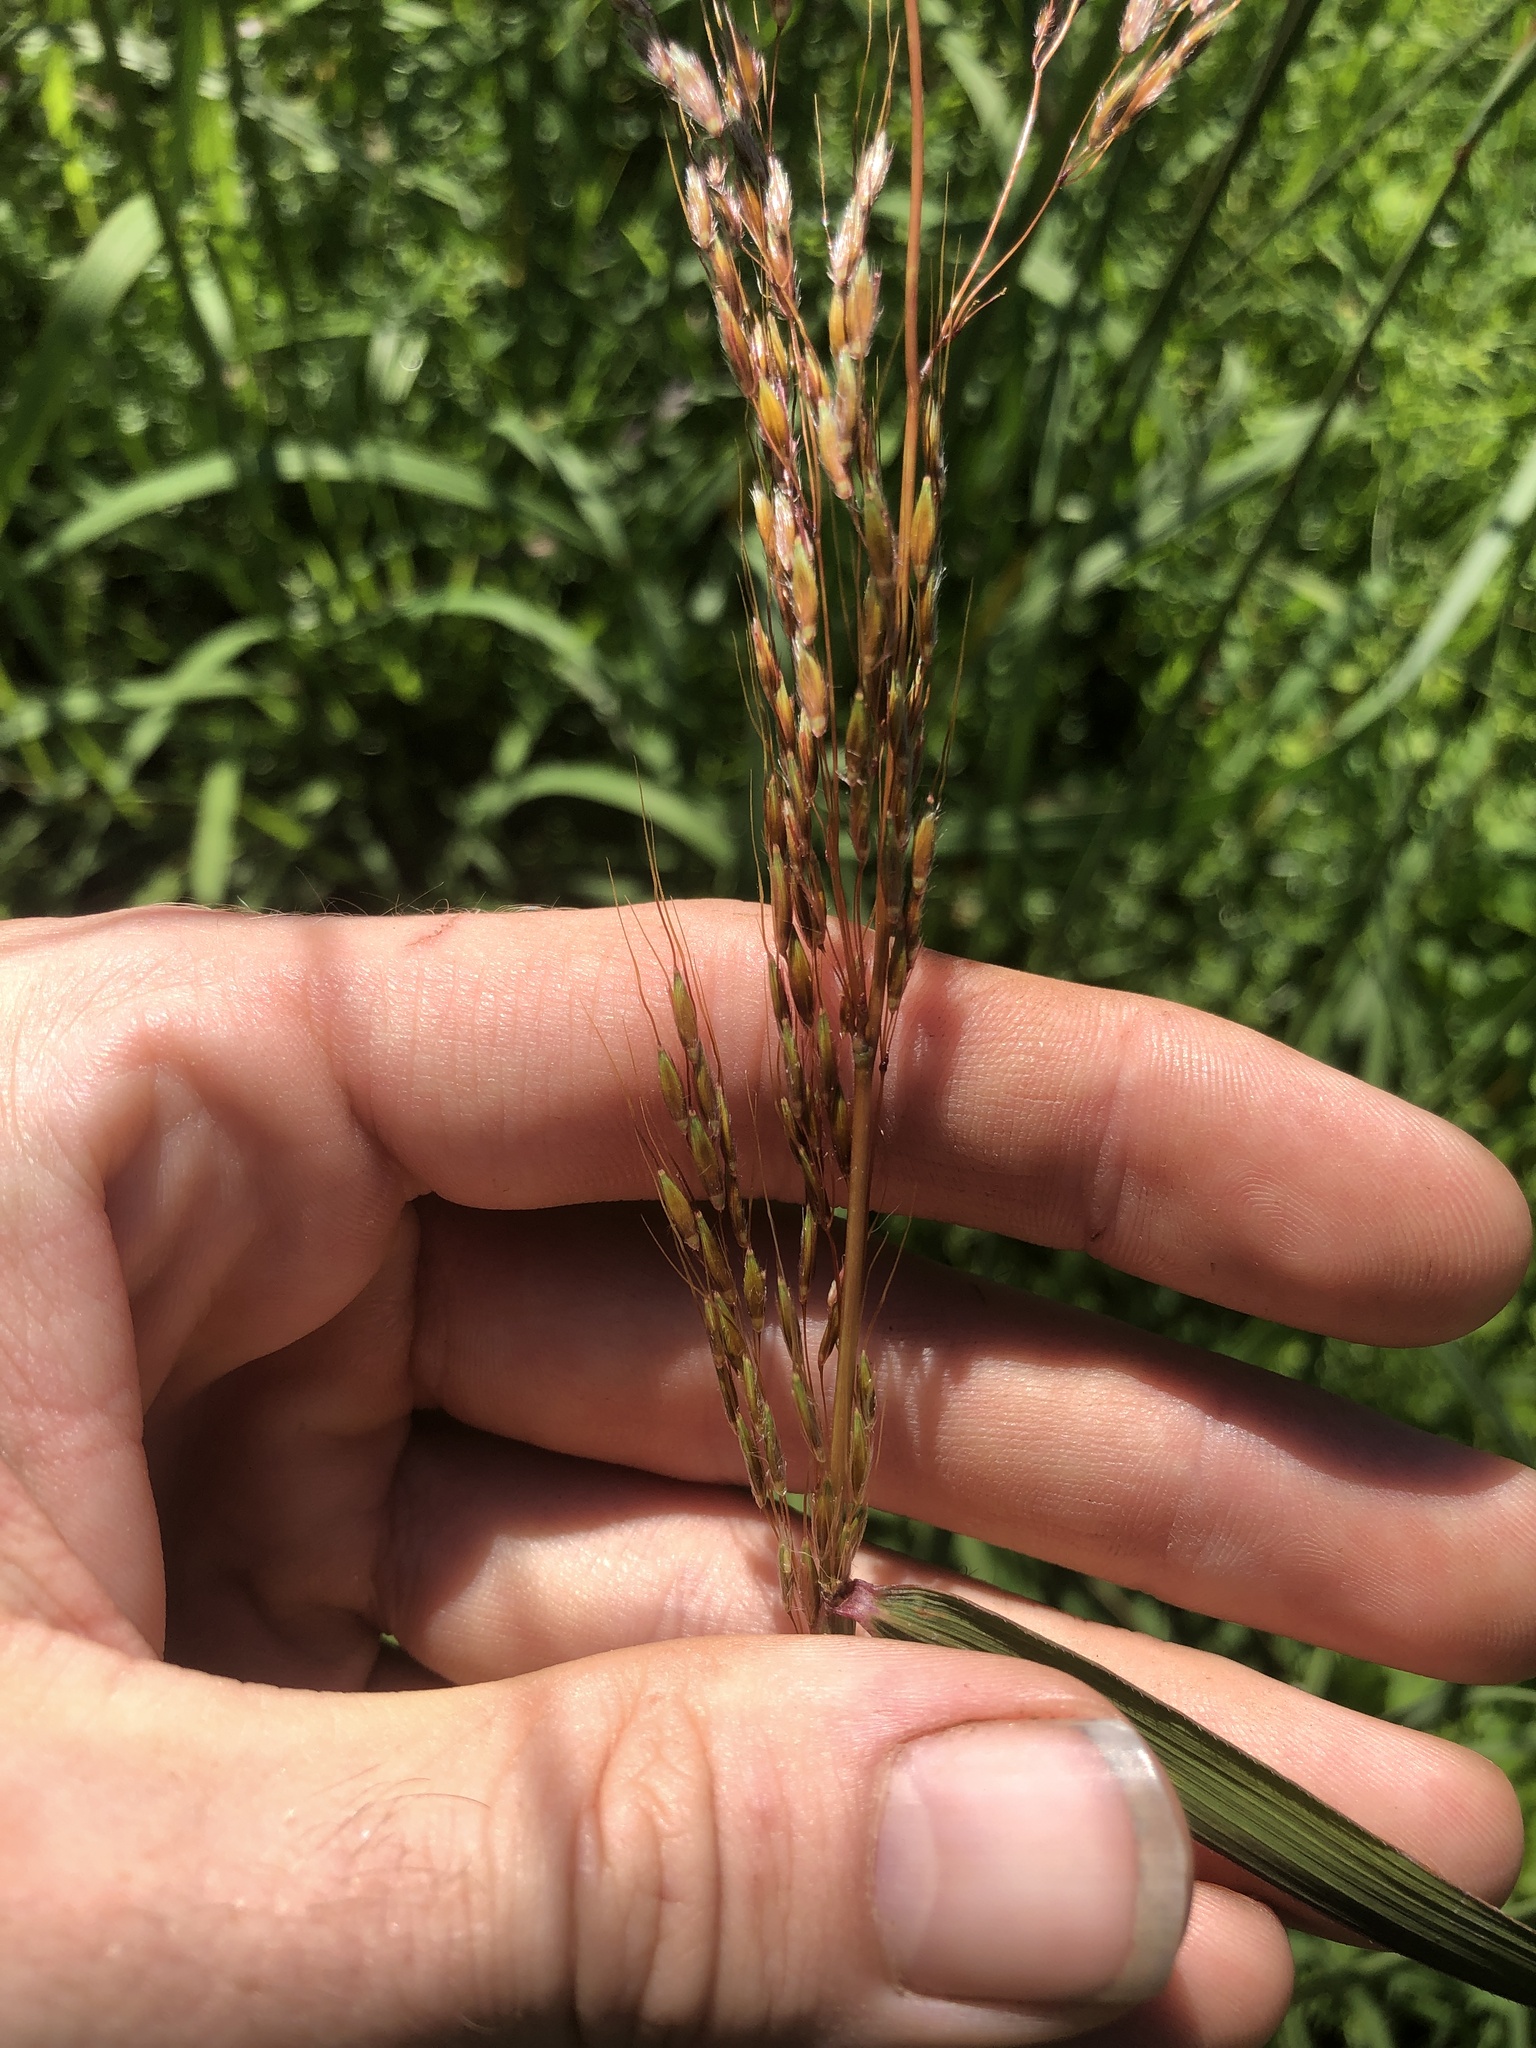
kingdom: Plantae
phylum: Tracheophyta
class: Liliopsida
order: Poales
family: Poaceae
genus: Sorghastrum
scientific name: Sorghastrum nutans
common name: Indian grass
